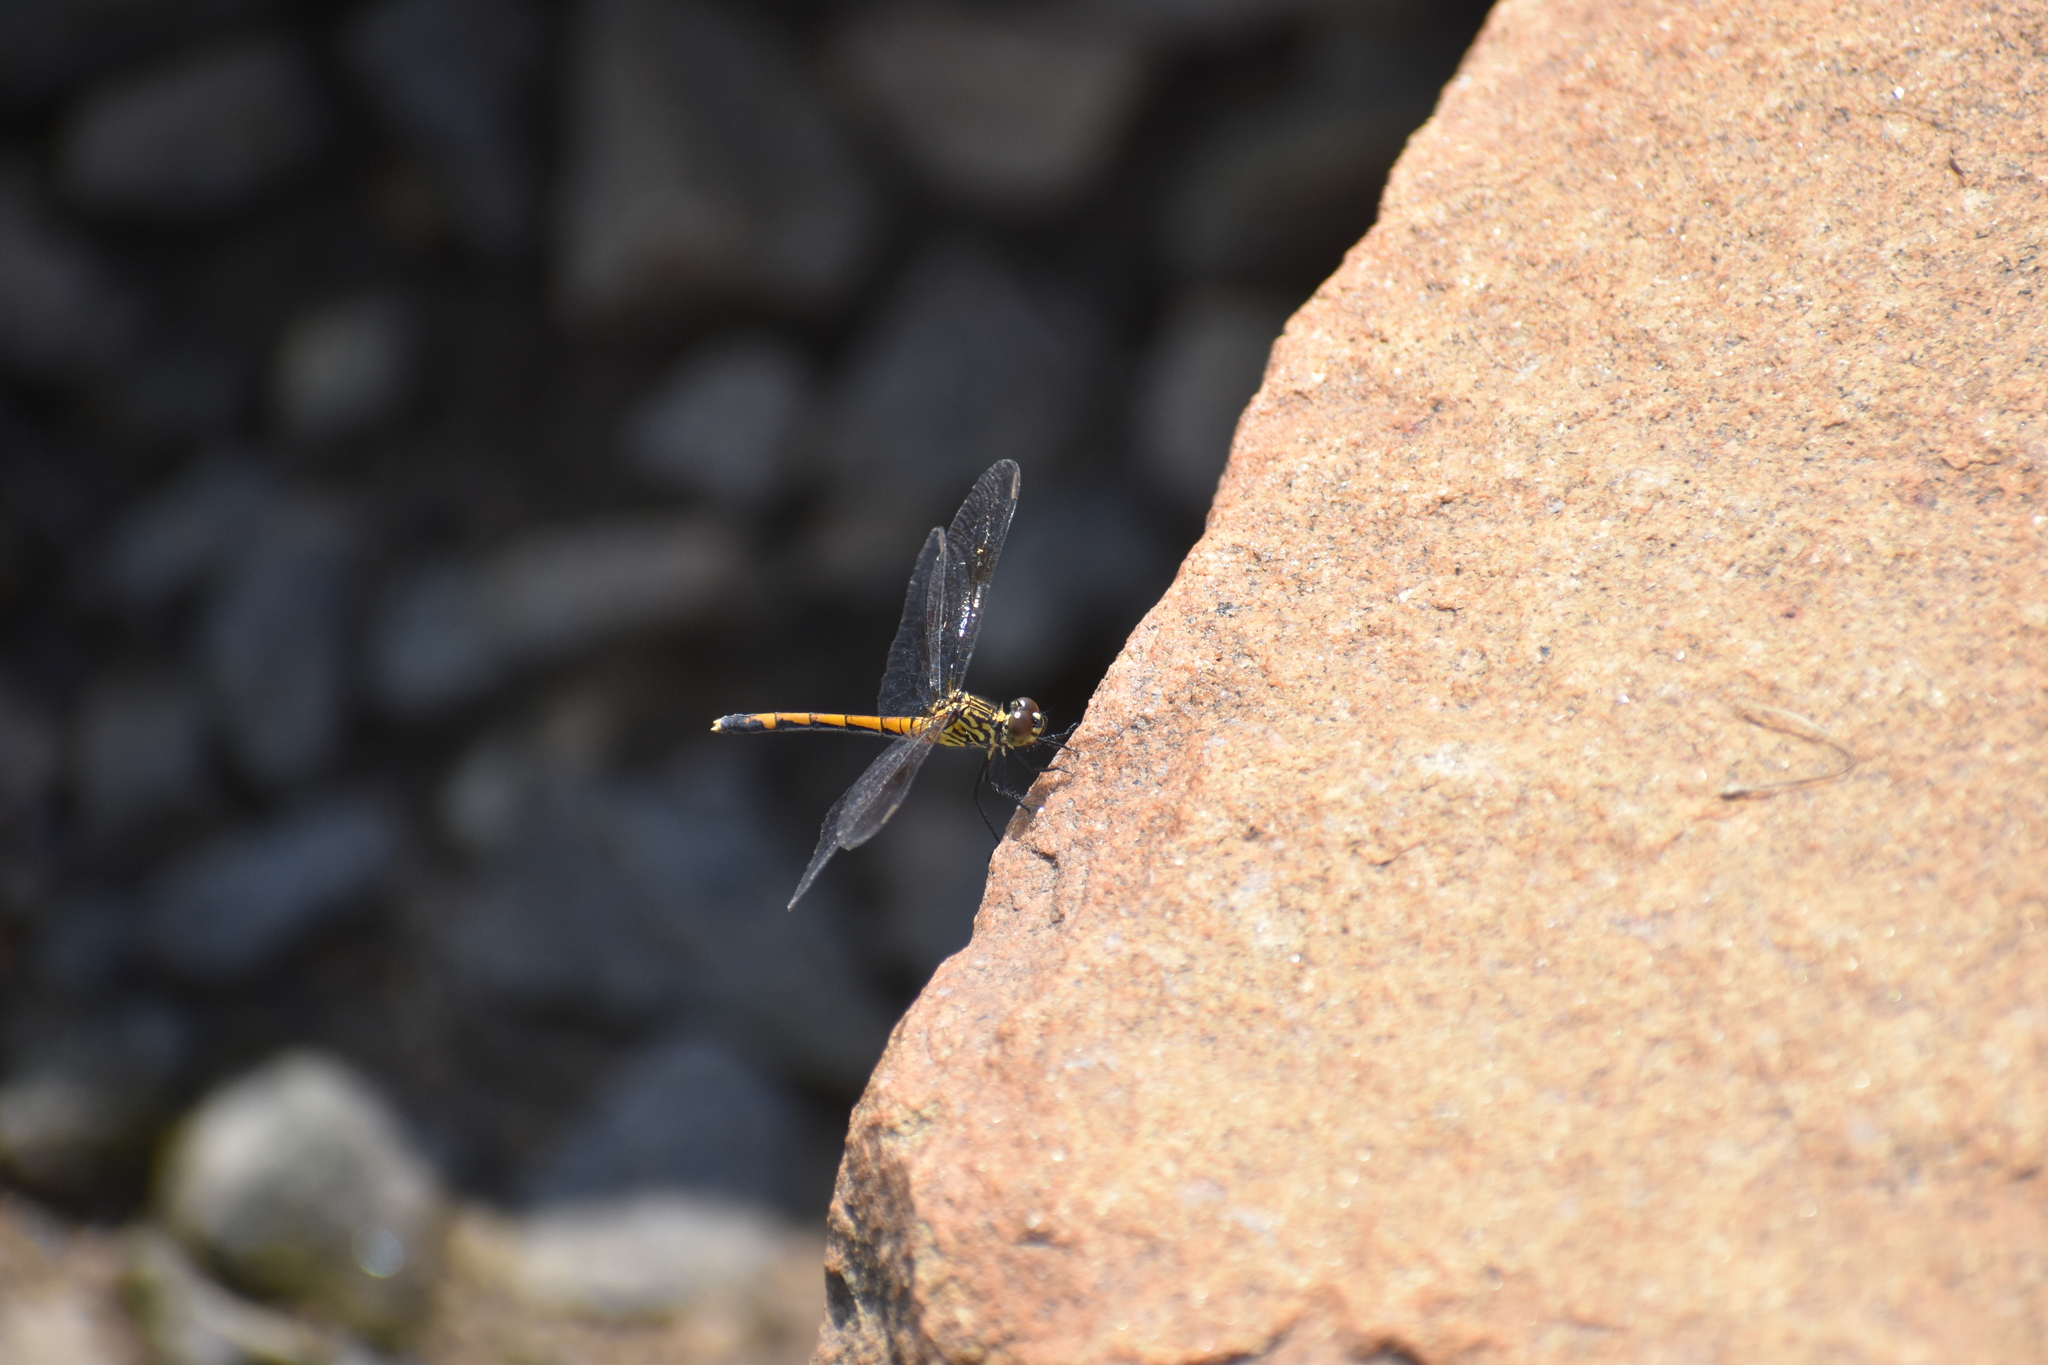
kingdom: Animalia
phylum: Arthropoda
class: Insecta
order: Odonata
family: Libellulidae
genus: Erythrodiplax
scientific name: Erythrodiplax berenice
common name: Seaside dragonlet
